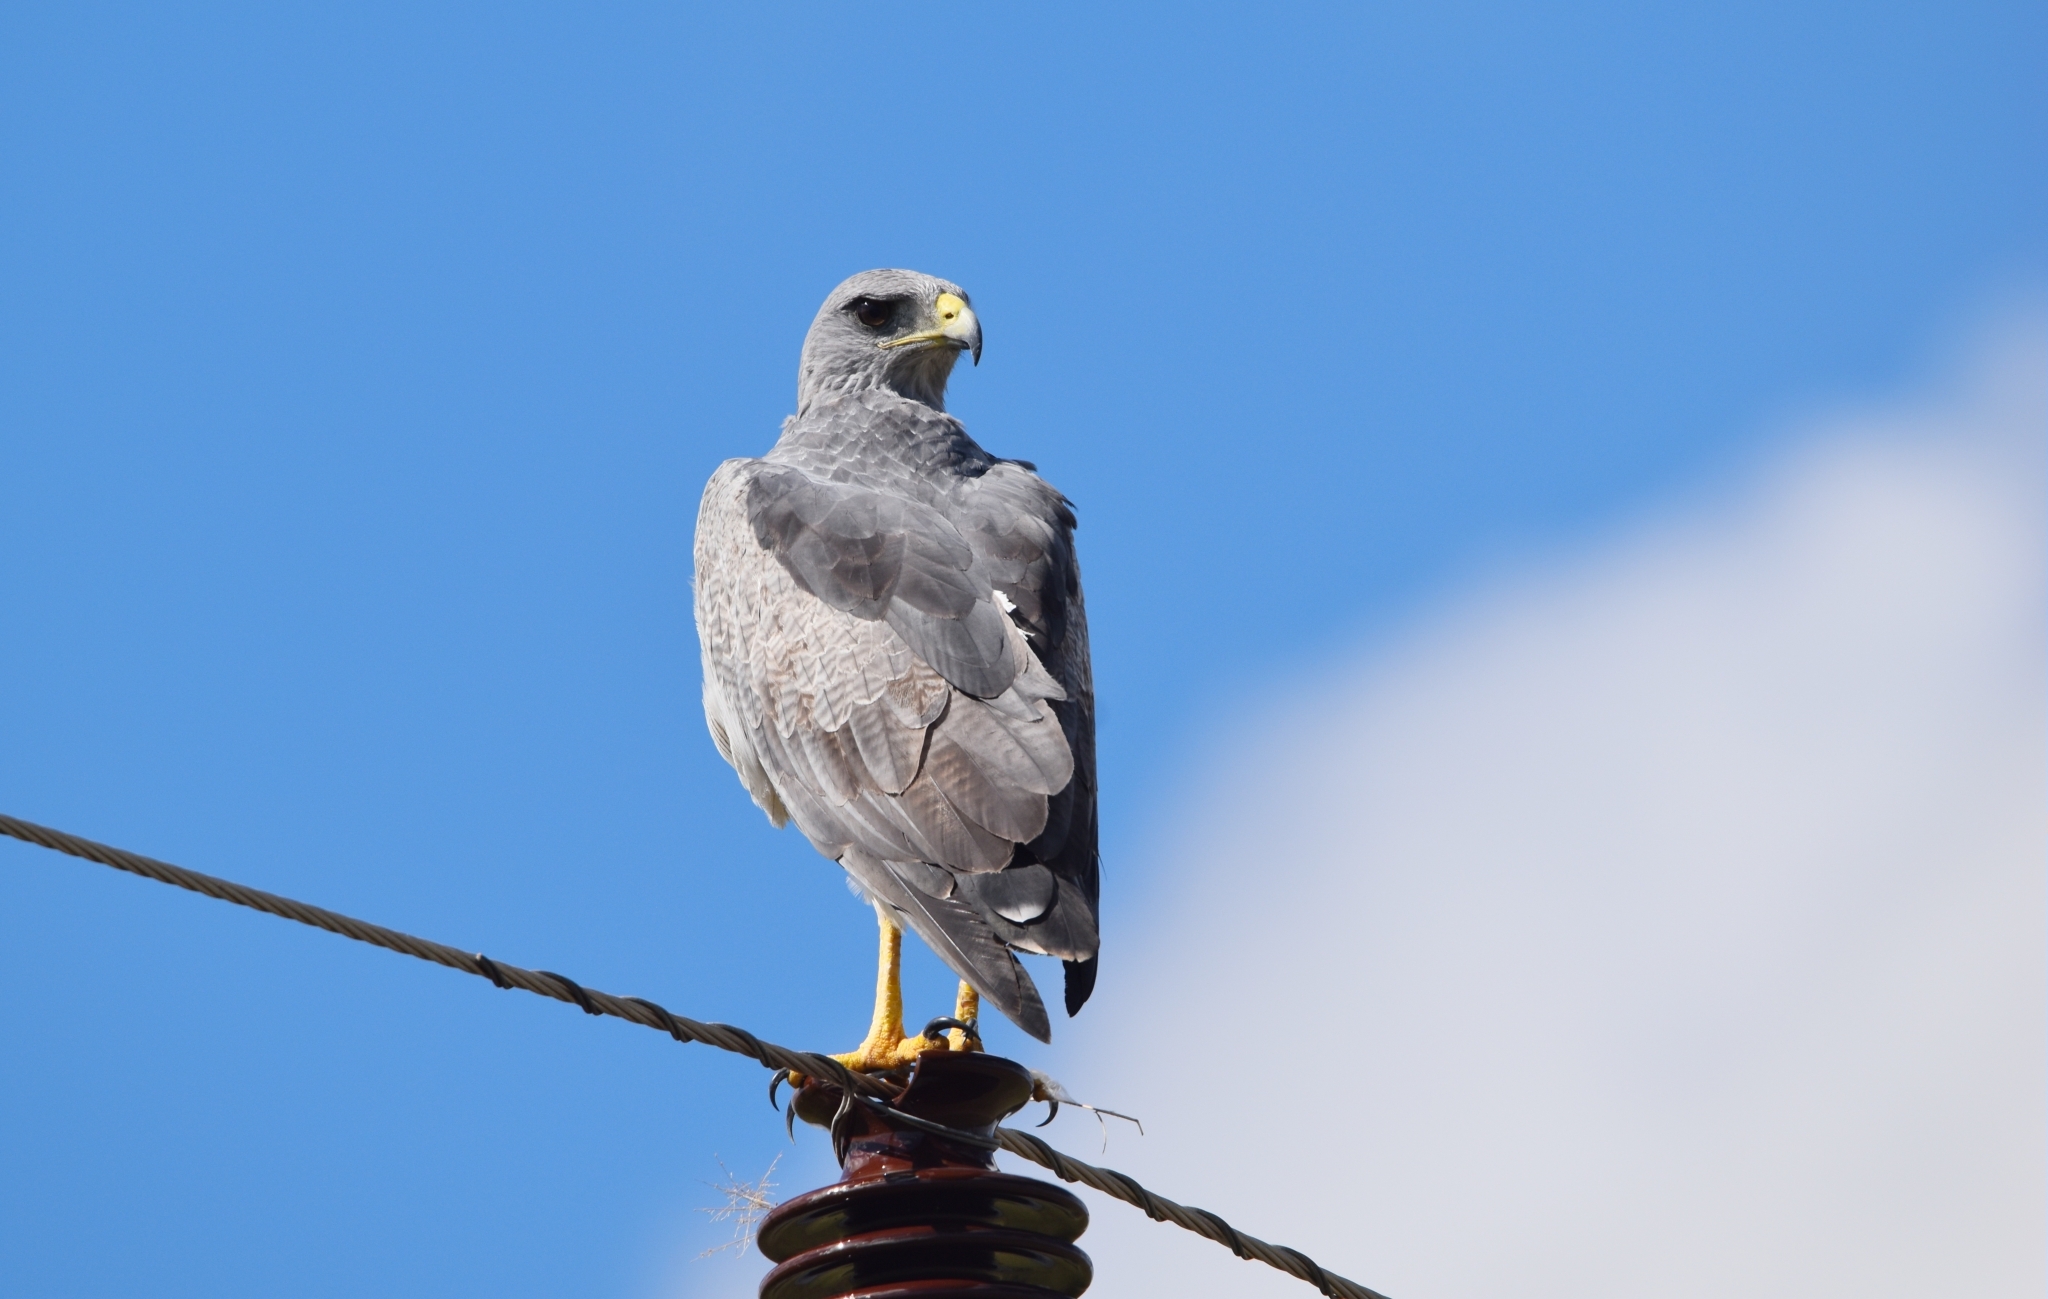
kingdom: Animalia
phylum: Chordata
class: Aves
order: Accipitriformes
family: Accipitridae
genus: Geranoaetus
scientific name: Geranoaetus melanoleucus
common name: Black-chested buzzard-eagle
